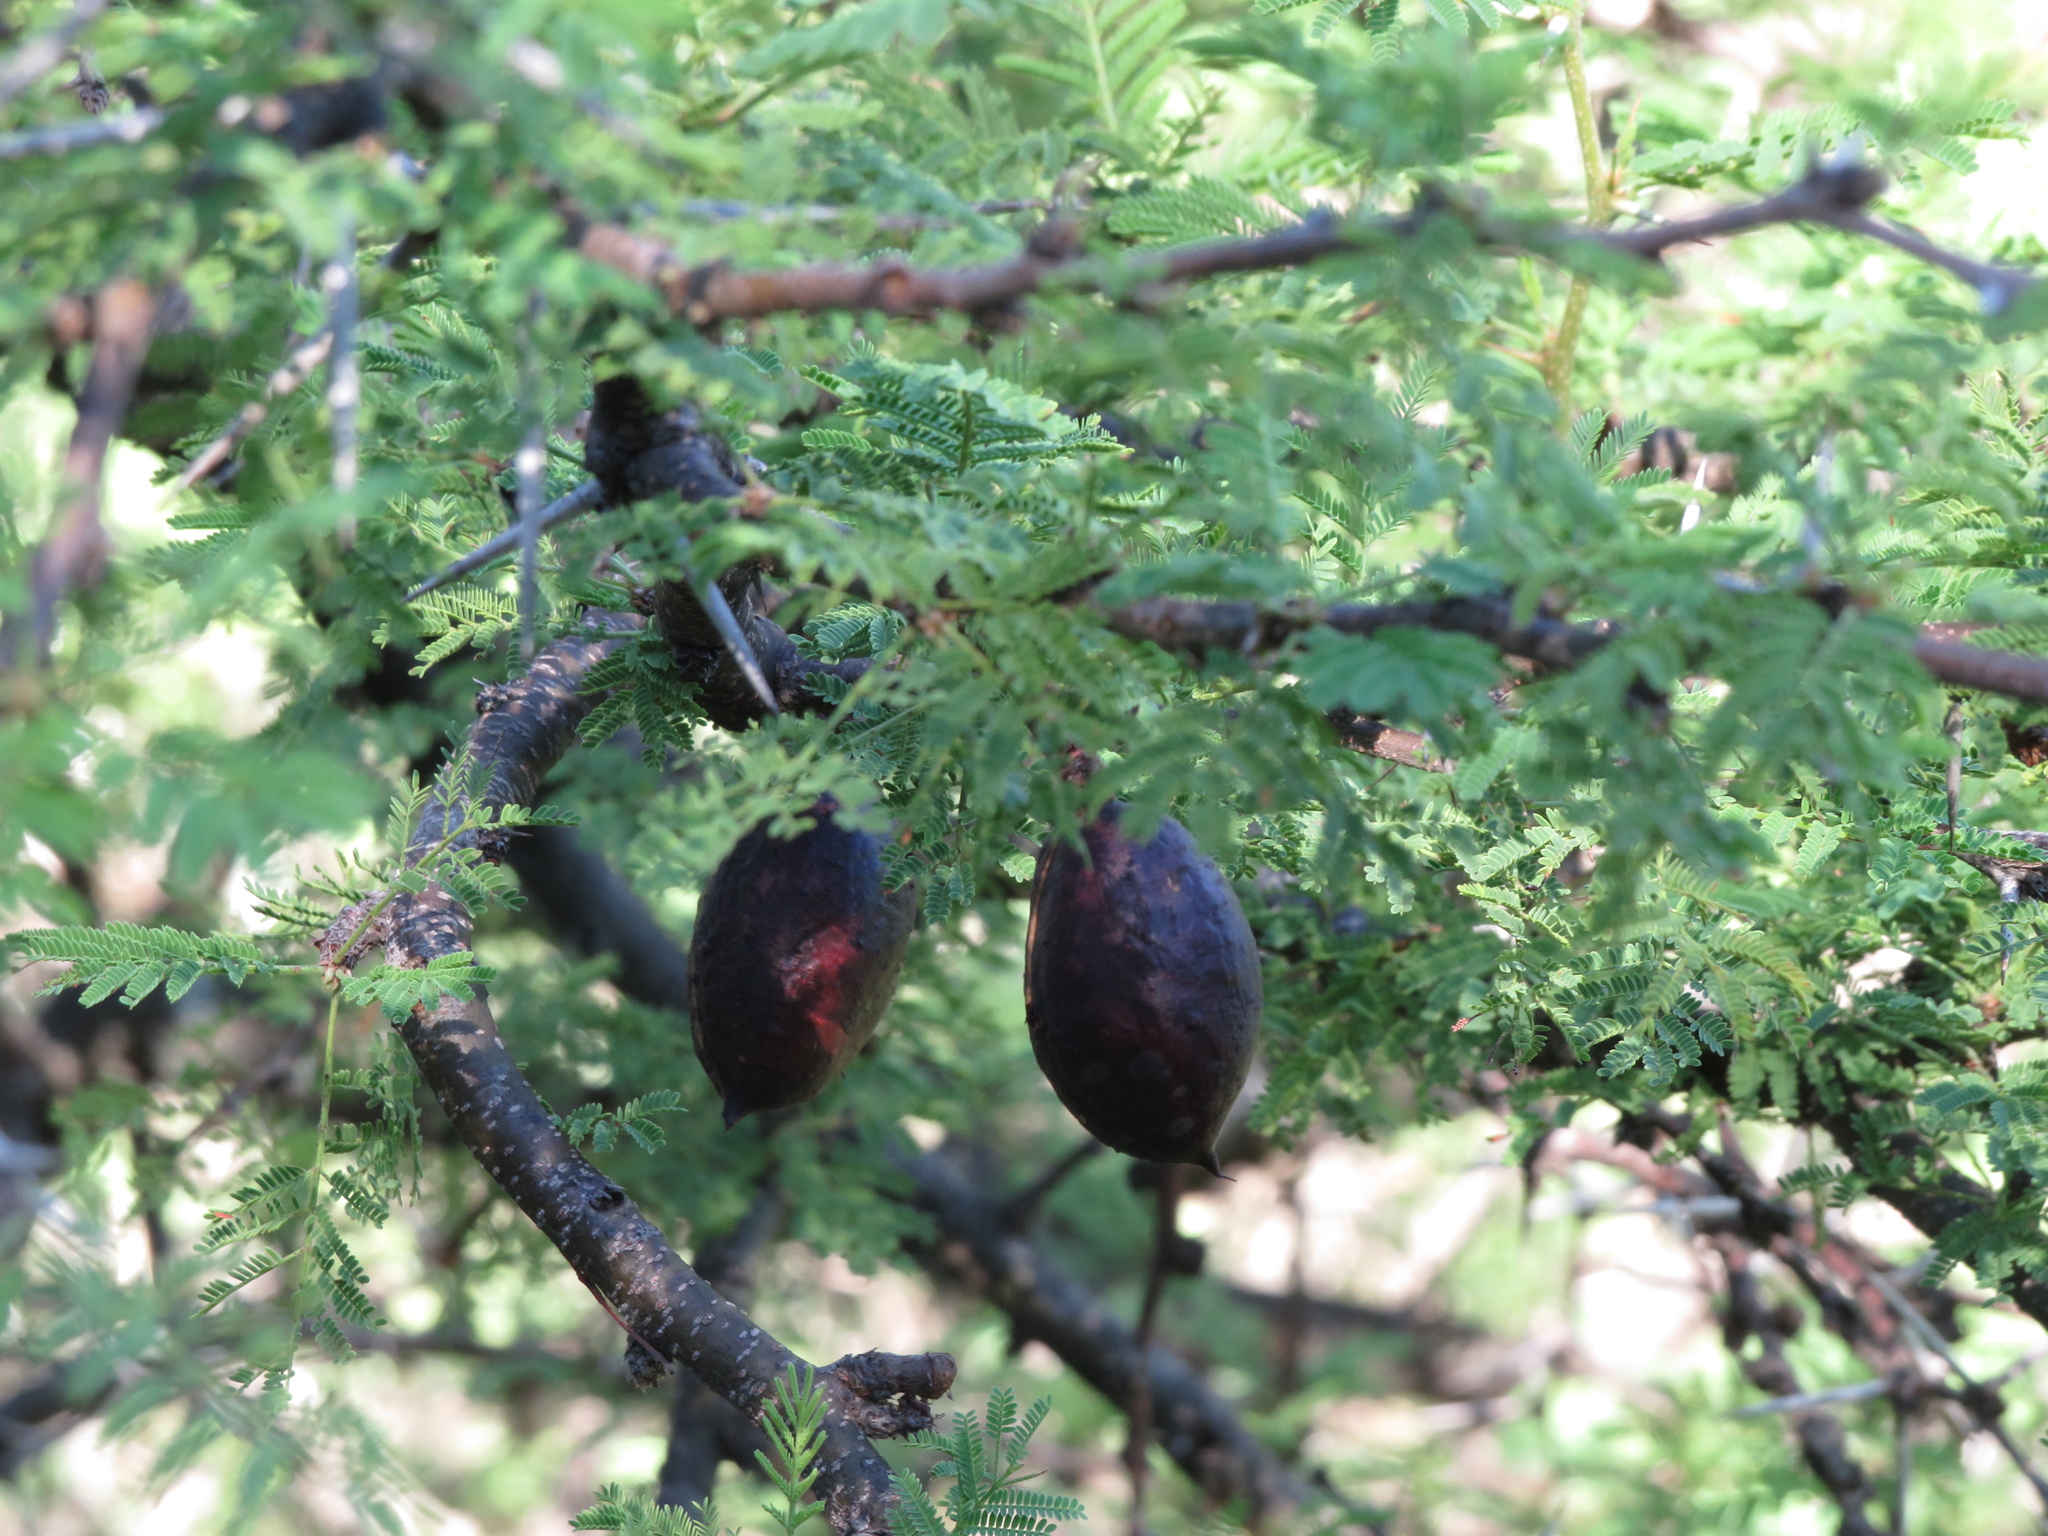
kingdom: Plantae
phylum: Tracheophyta
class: Magnoliopsida
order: Fabales
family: Fabaceae
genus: Vachellia
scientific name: Vachellia caven
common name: Roman cassie
